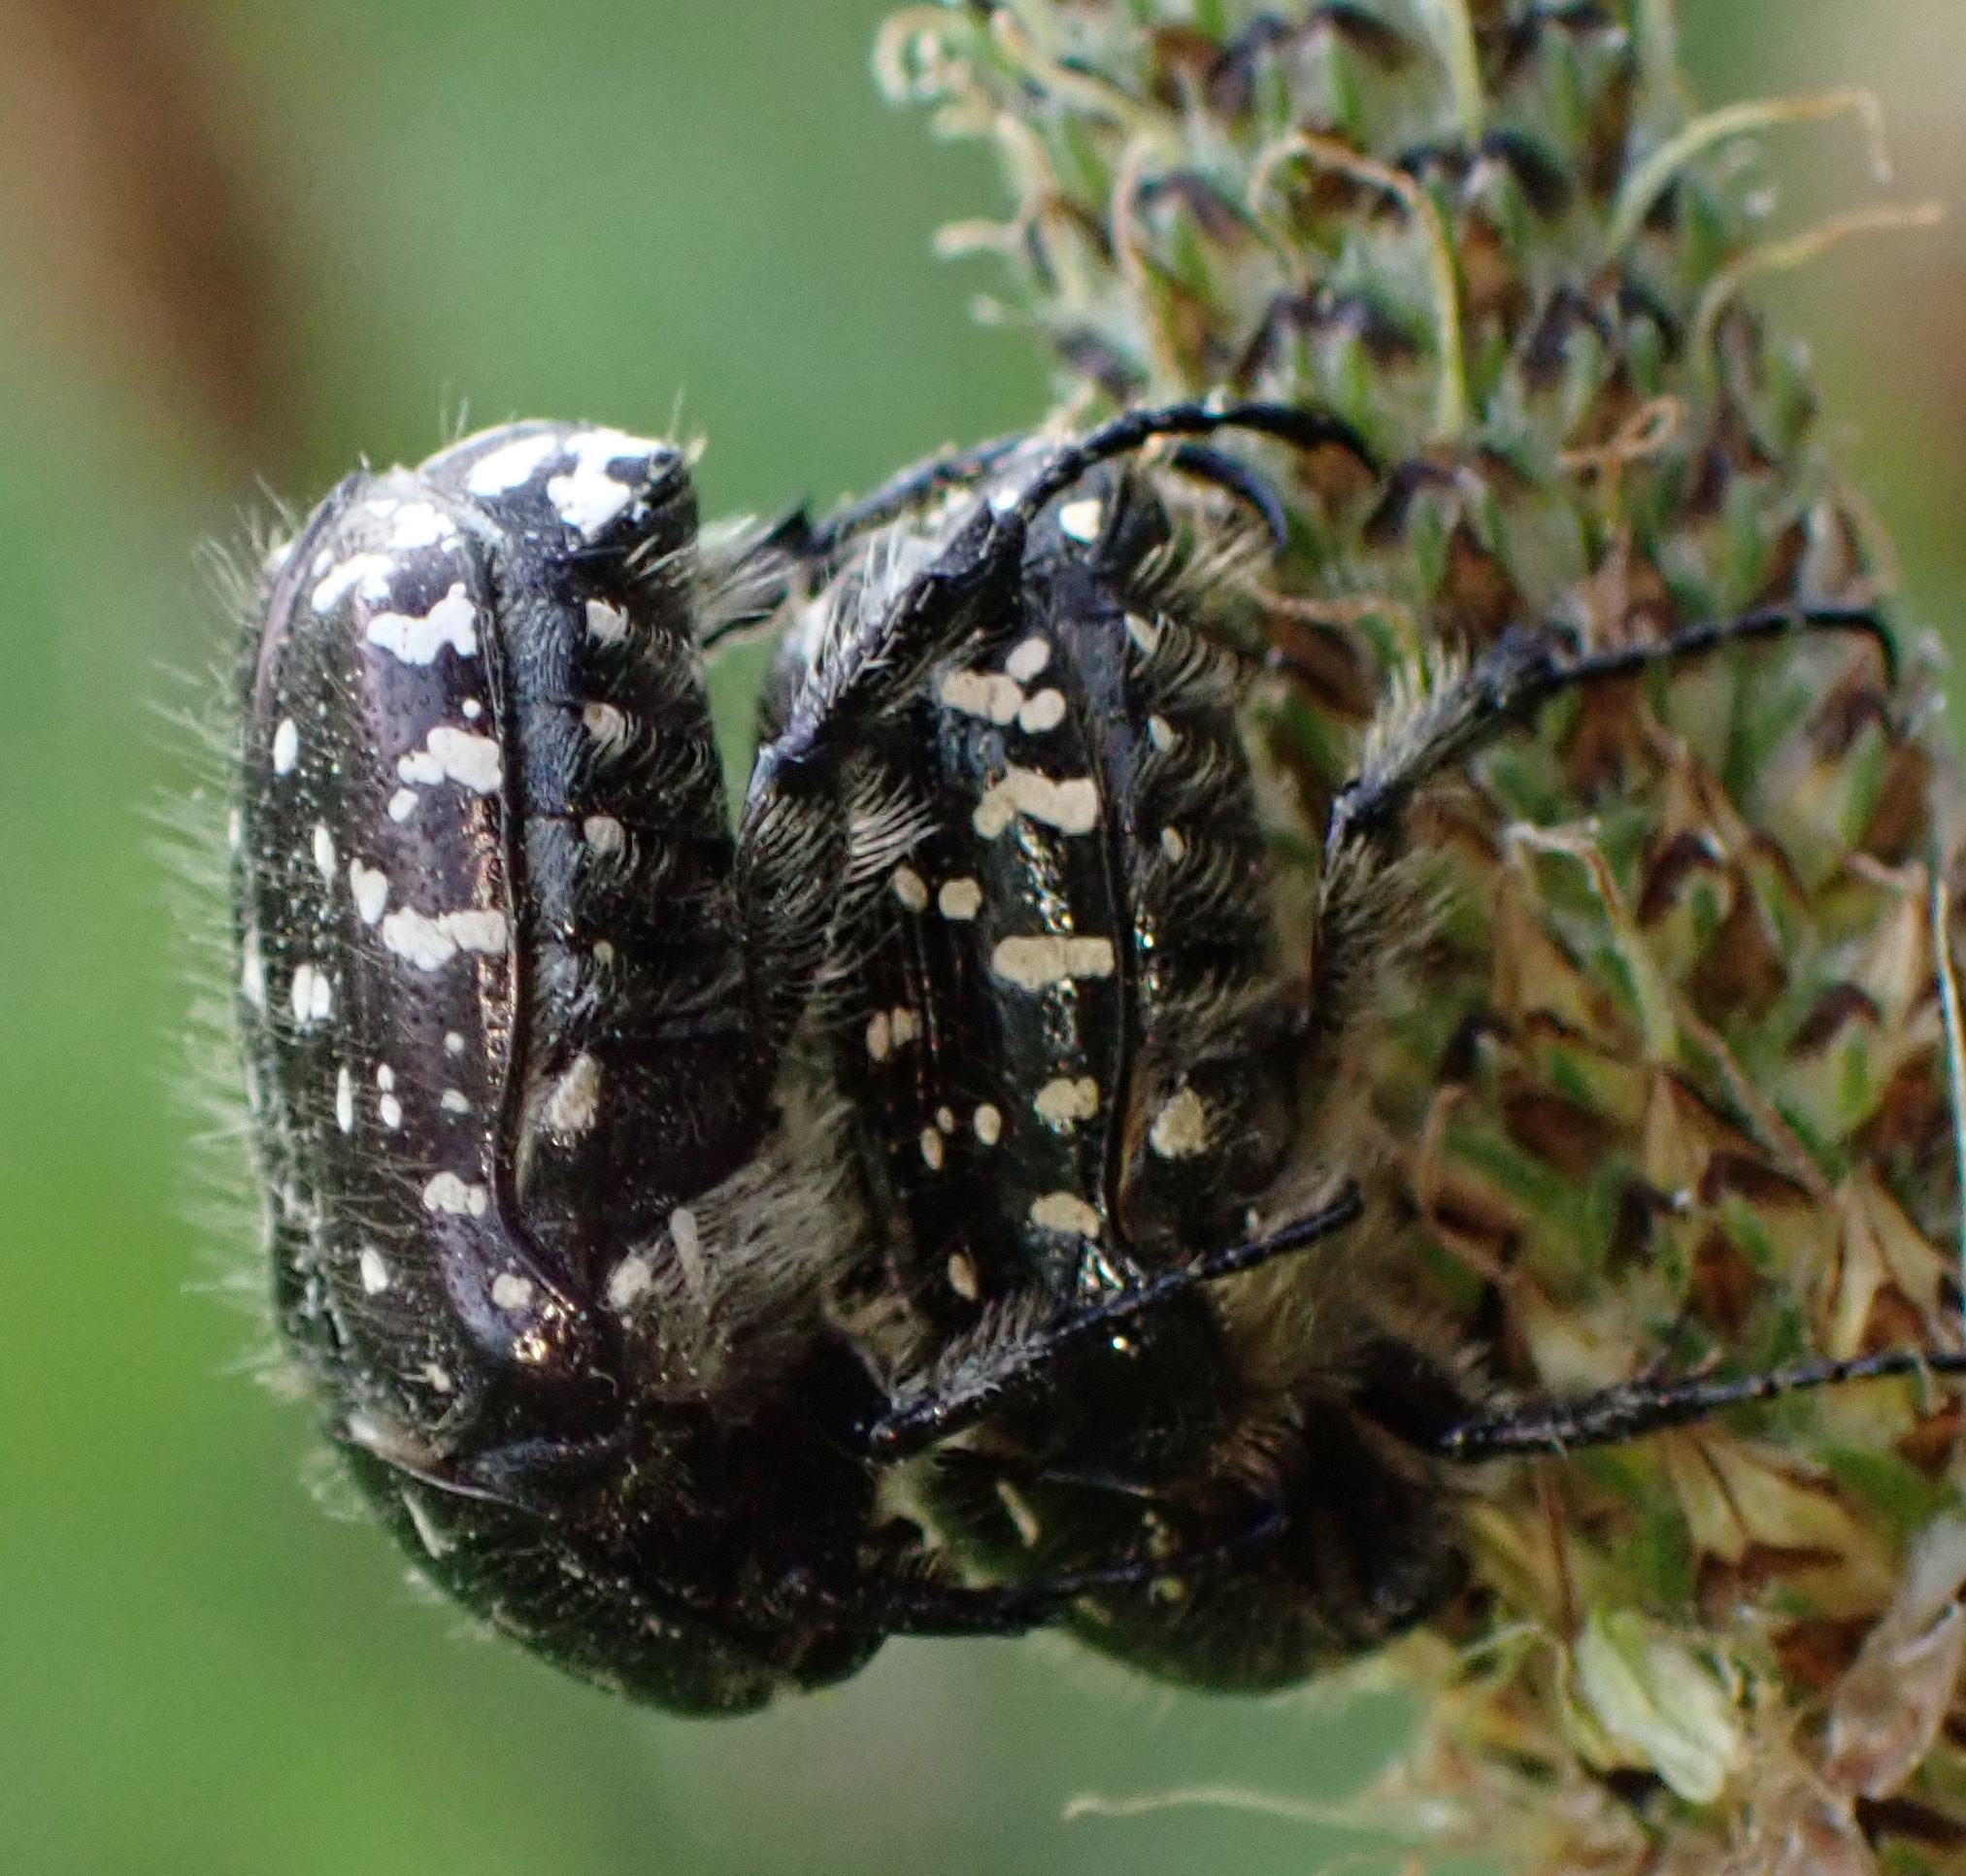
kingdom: Animalia
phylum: Arthropoda
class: Insecta
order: Coleoptera
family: Scarabaeidae
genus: Oxythyrea
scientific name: Oxythyrea funesta
